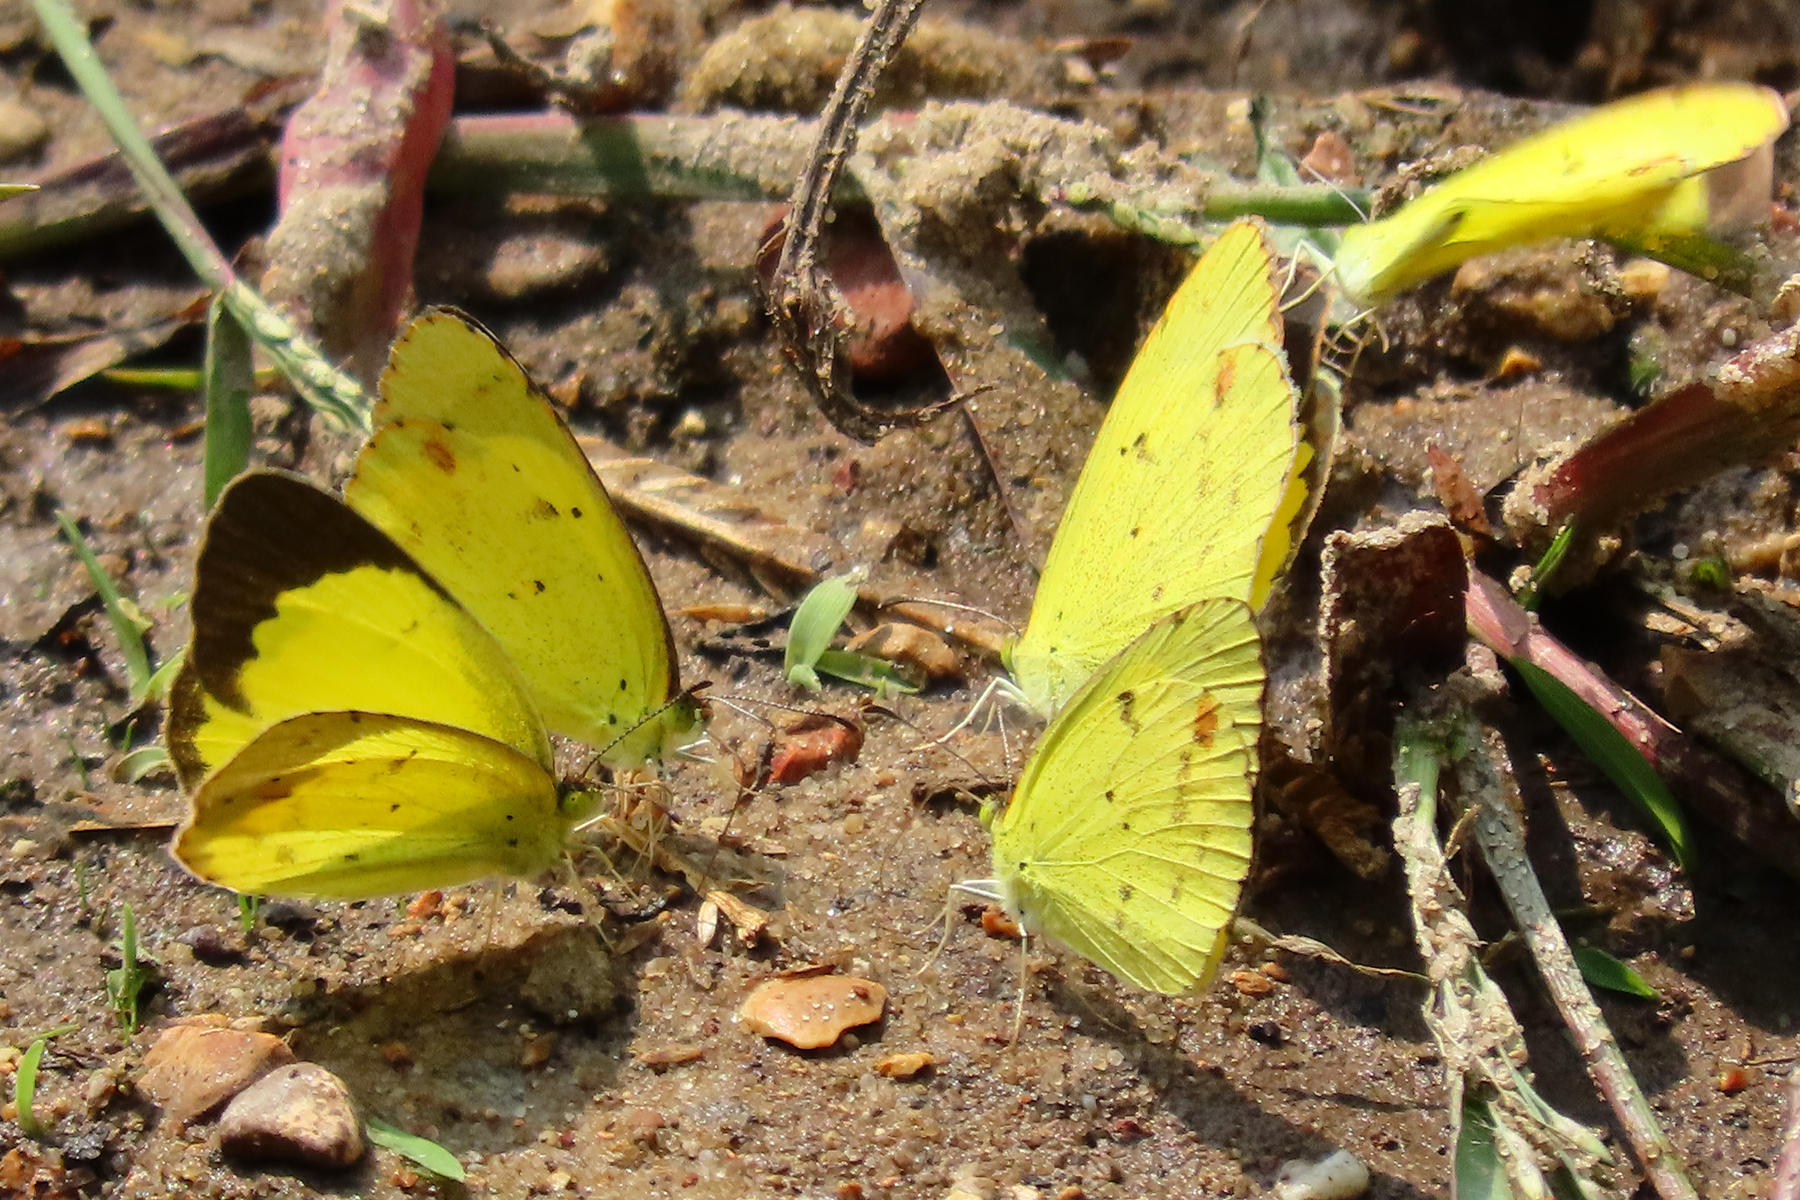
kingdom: Animalia
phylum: Arthropoda
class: Insecta
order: Lepidoptera
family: Pieridae
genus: Pyrisitia
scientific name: Pyrisitia lisa
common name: Little yellow
